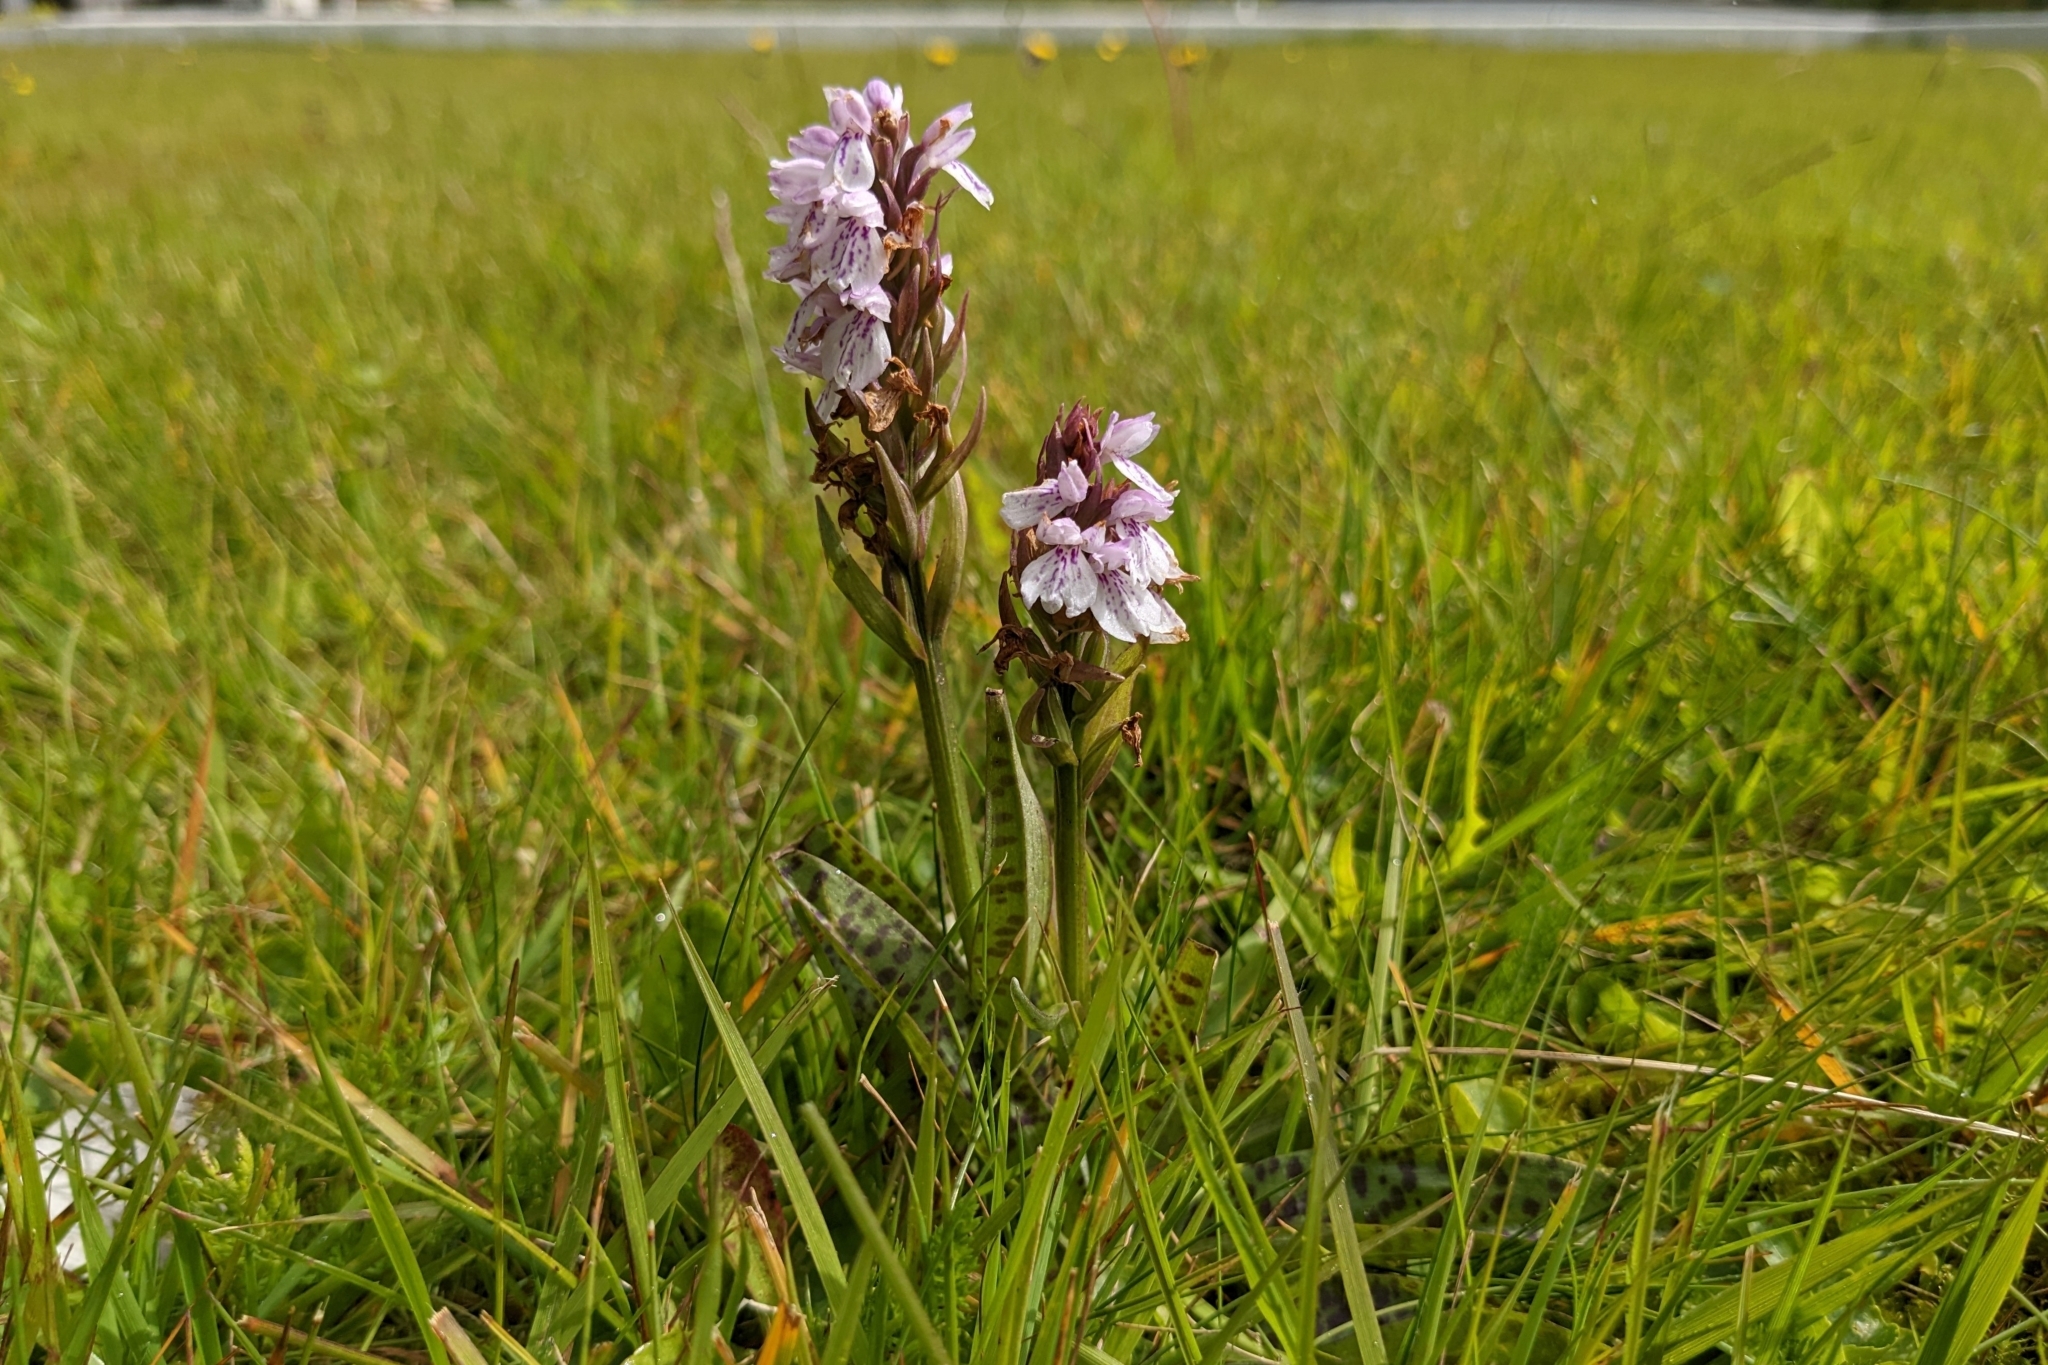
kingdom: Plantae
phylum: Tracheophyta
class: Liliopsida
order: Asparagales
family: Orchidaceae
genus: Dactylorhiza
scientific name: Dactylorhiza maculata
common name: Heath spotted-orchid
